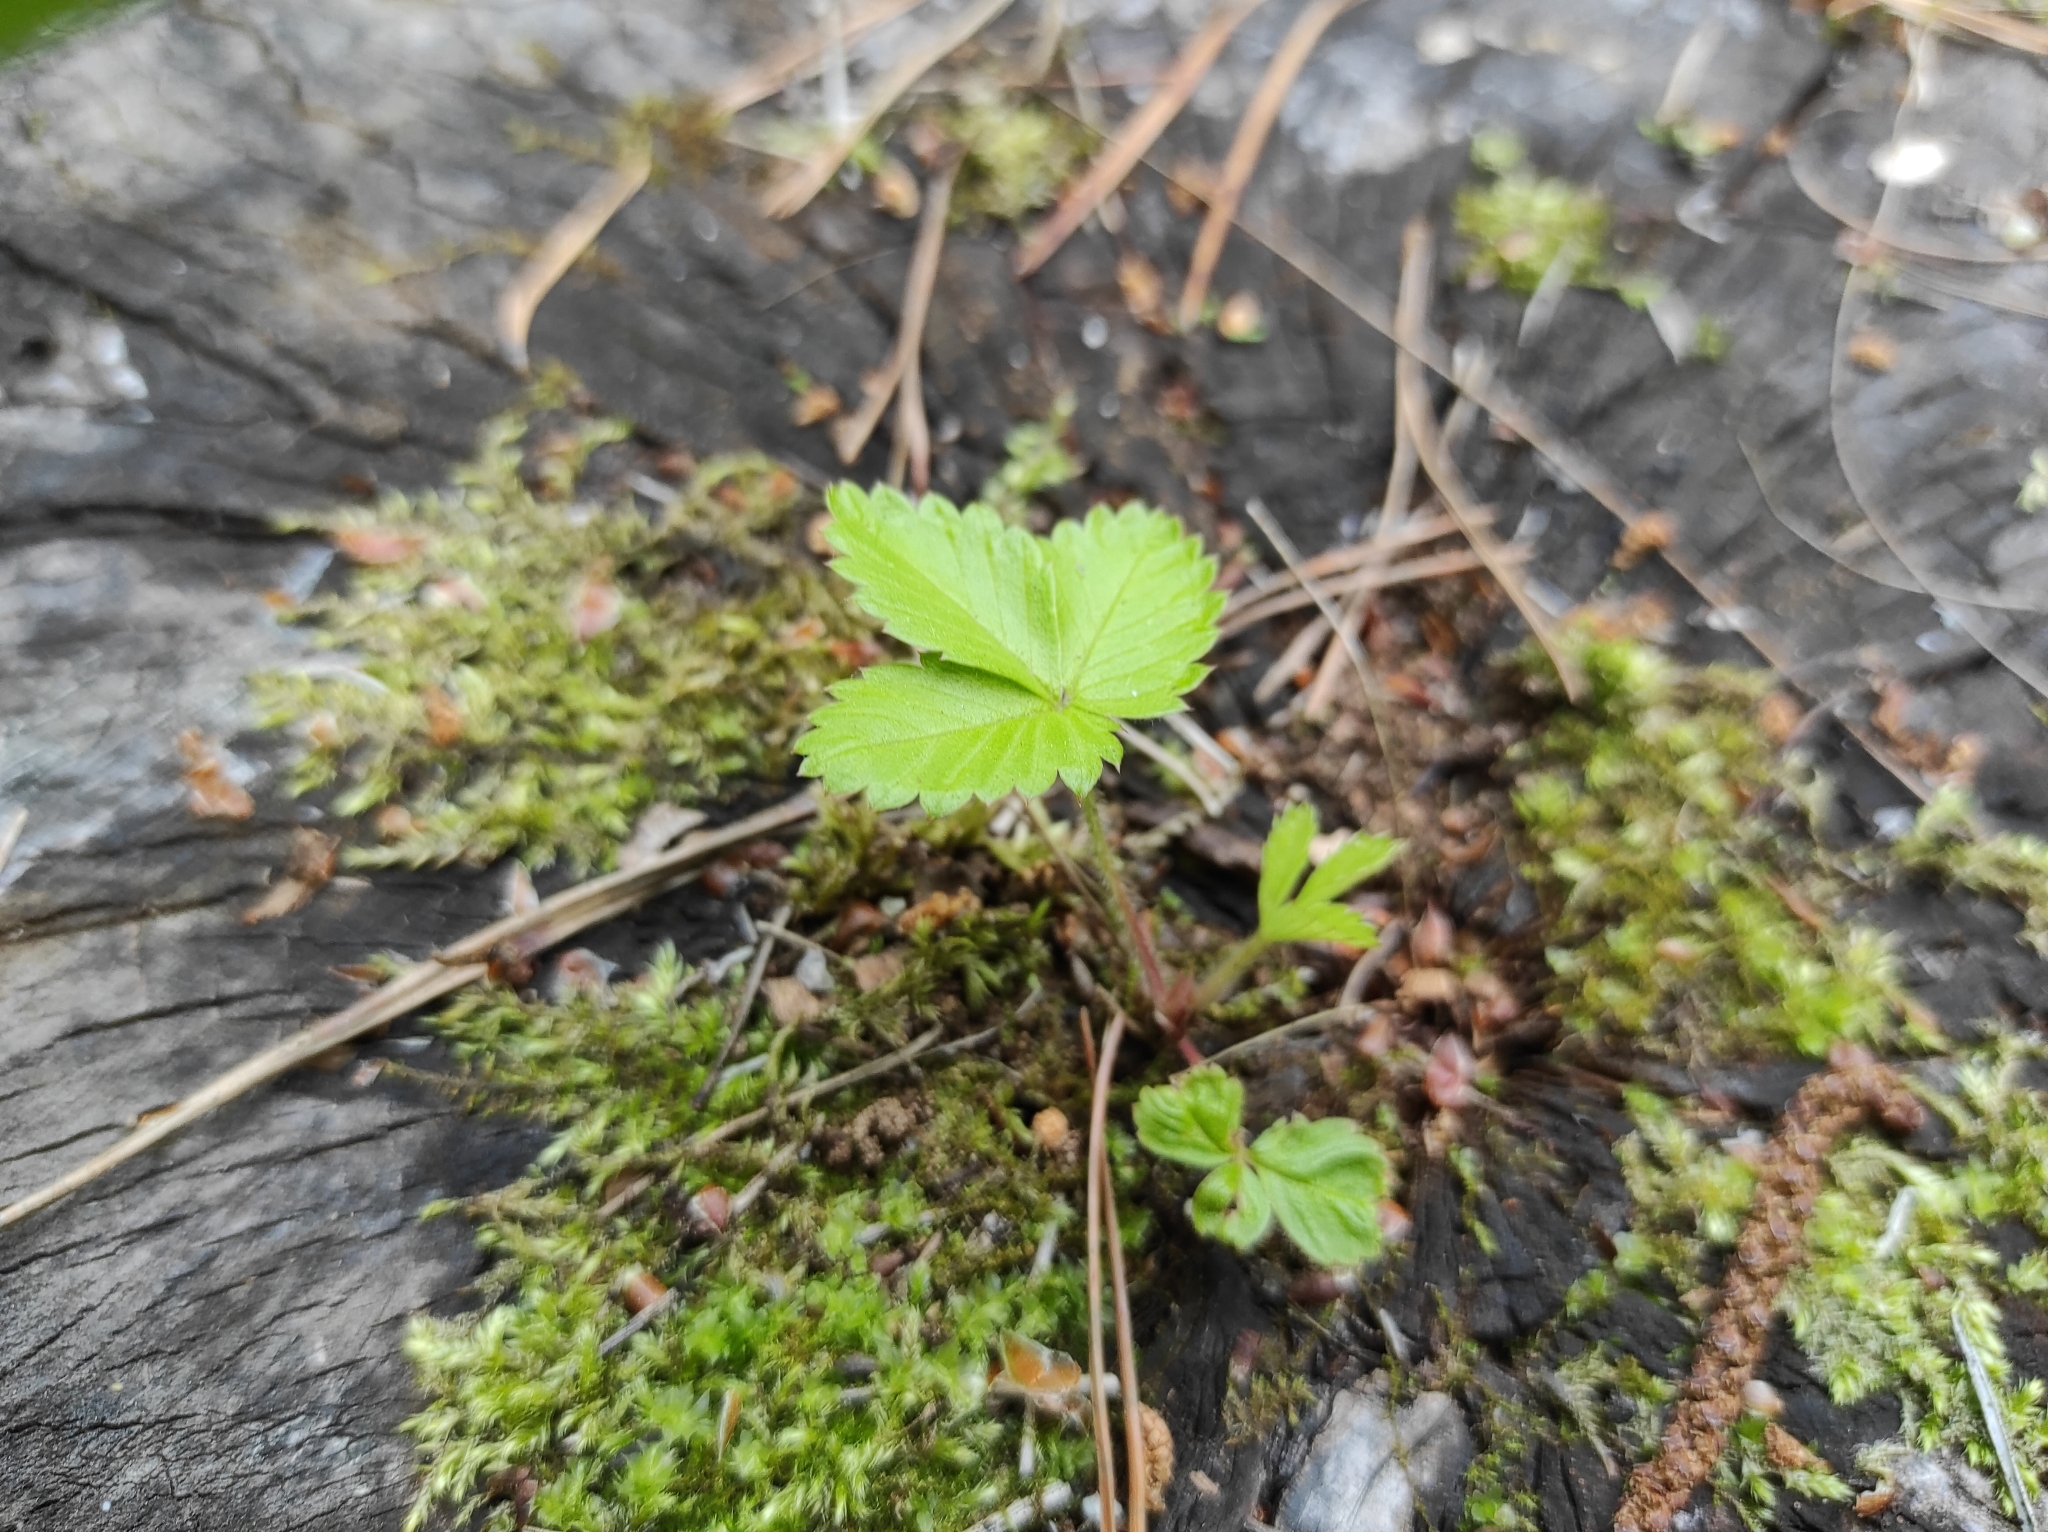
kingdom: Plantae
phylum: Tracheophyta
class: Magnoliopsida
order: Rosales
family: Rosaceae
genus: Fragaria
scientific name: Fragaria vesca
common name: Wild strawberry
